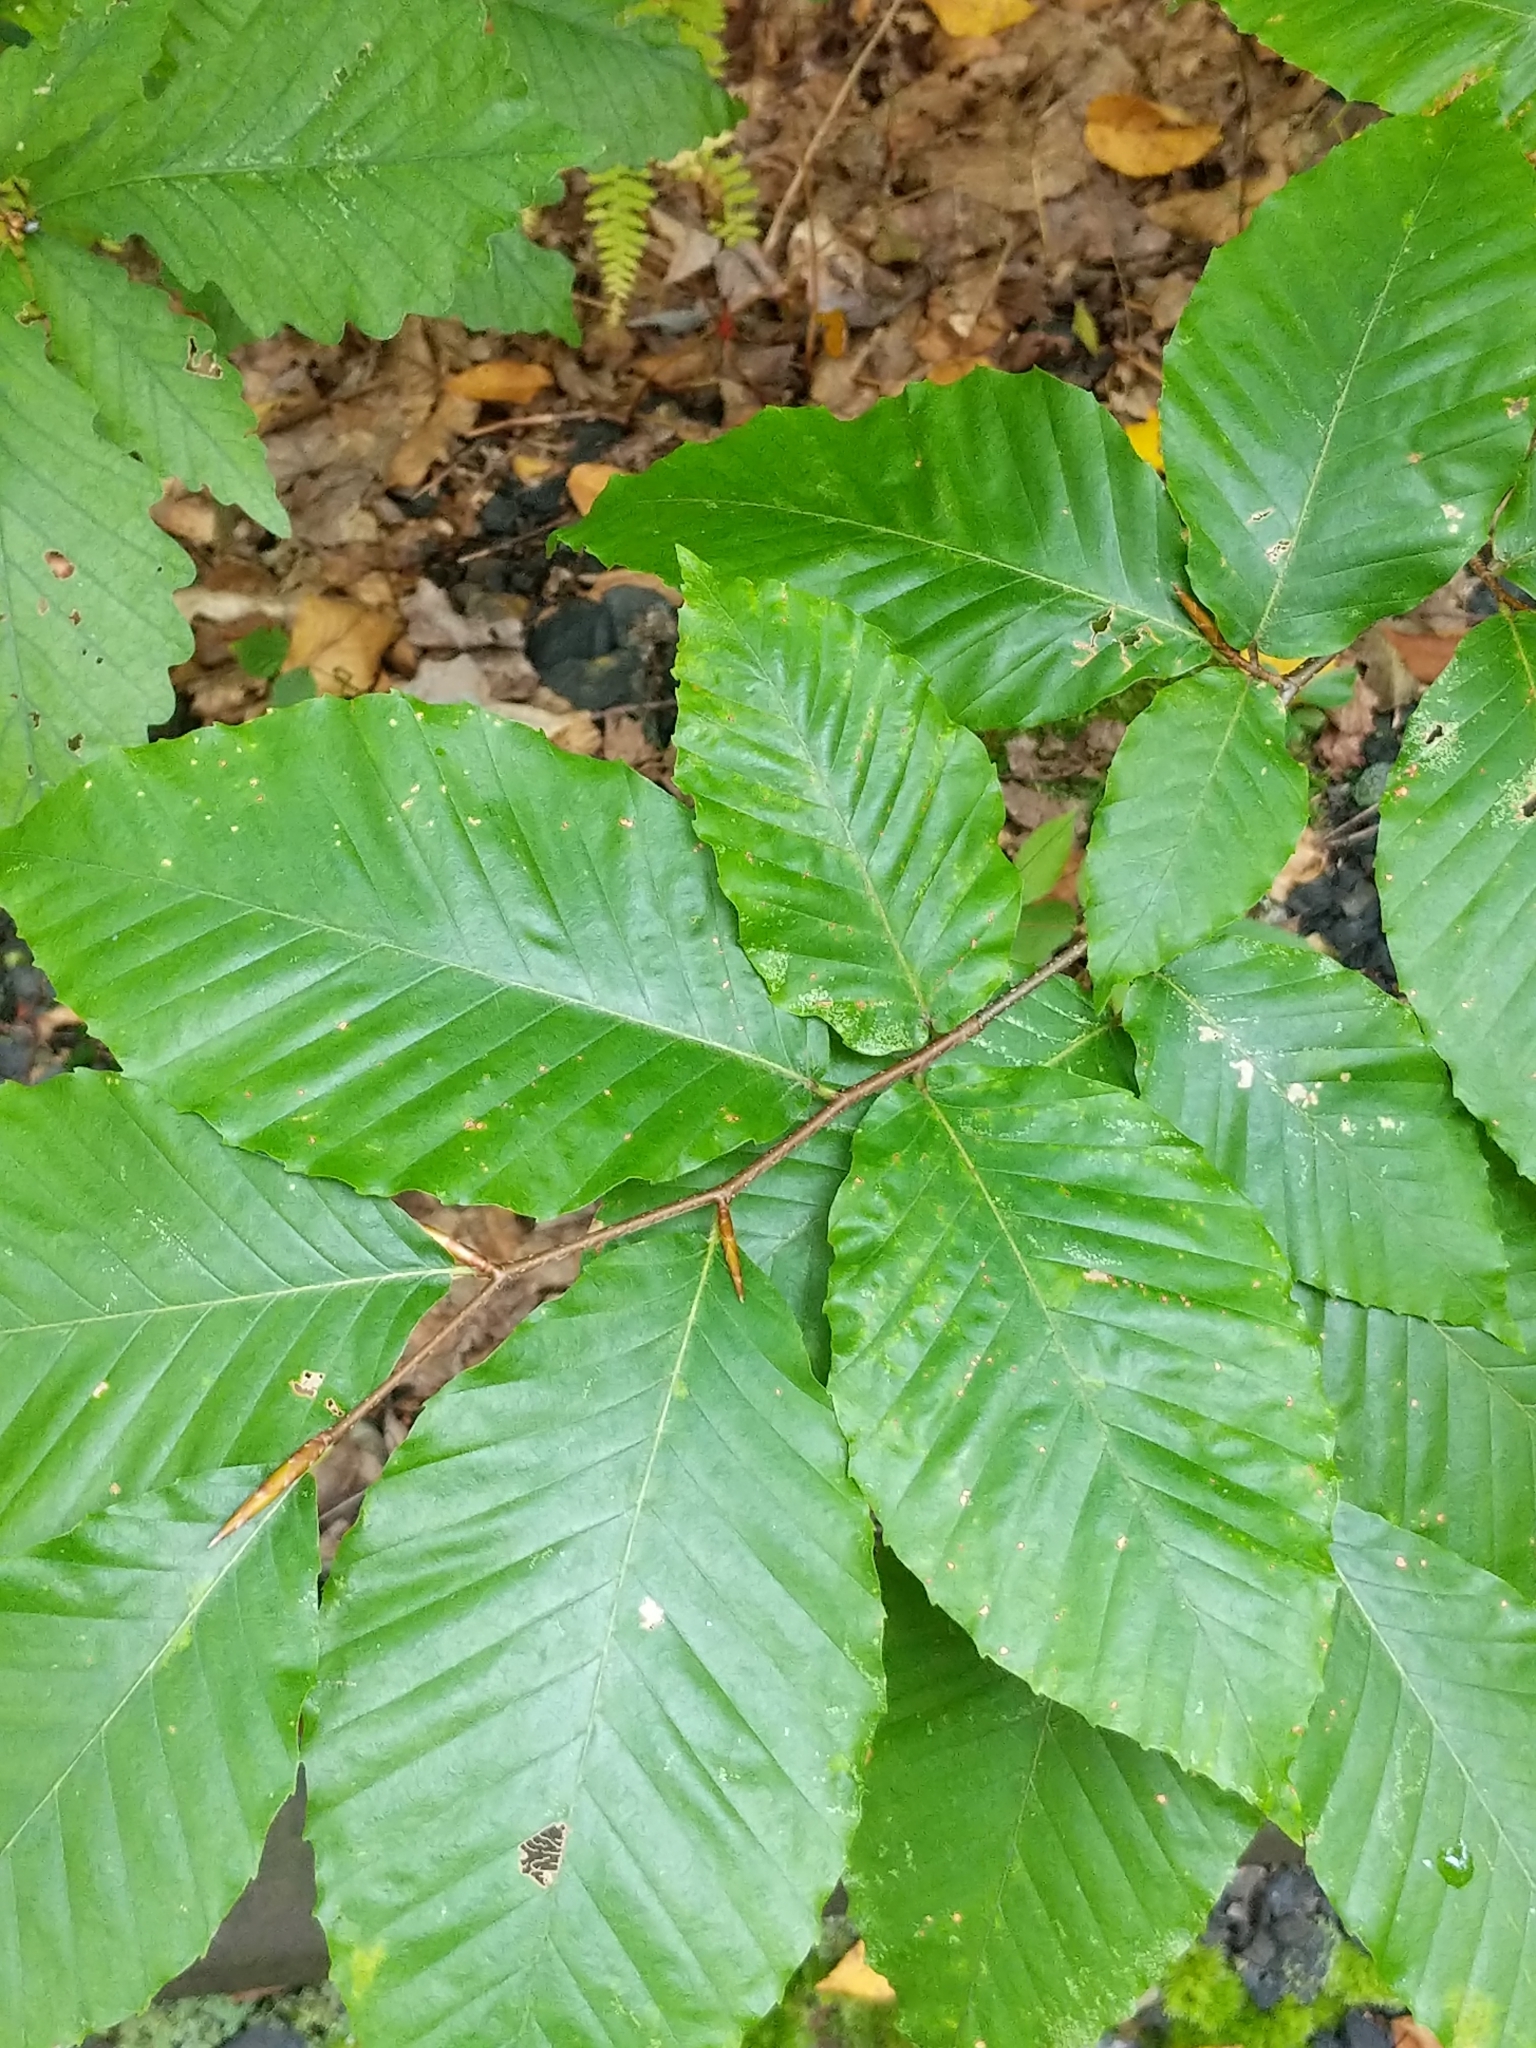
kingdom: Plantae
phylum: Tracheophyta
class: Magnoliopsida
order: Fagales
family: Fagaceae
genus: Fagus
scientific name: Fagus grandifolia
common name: American beech
